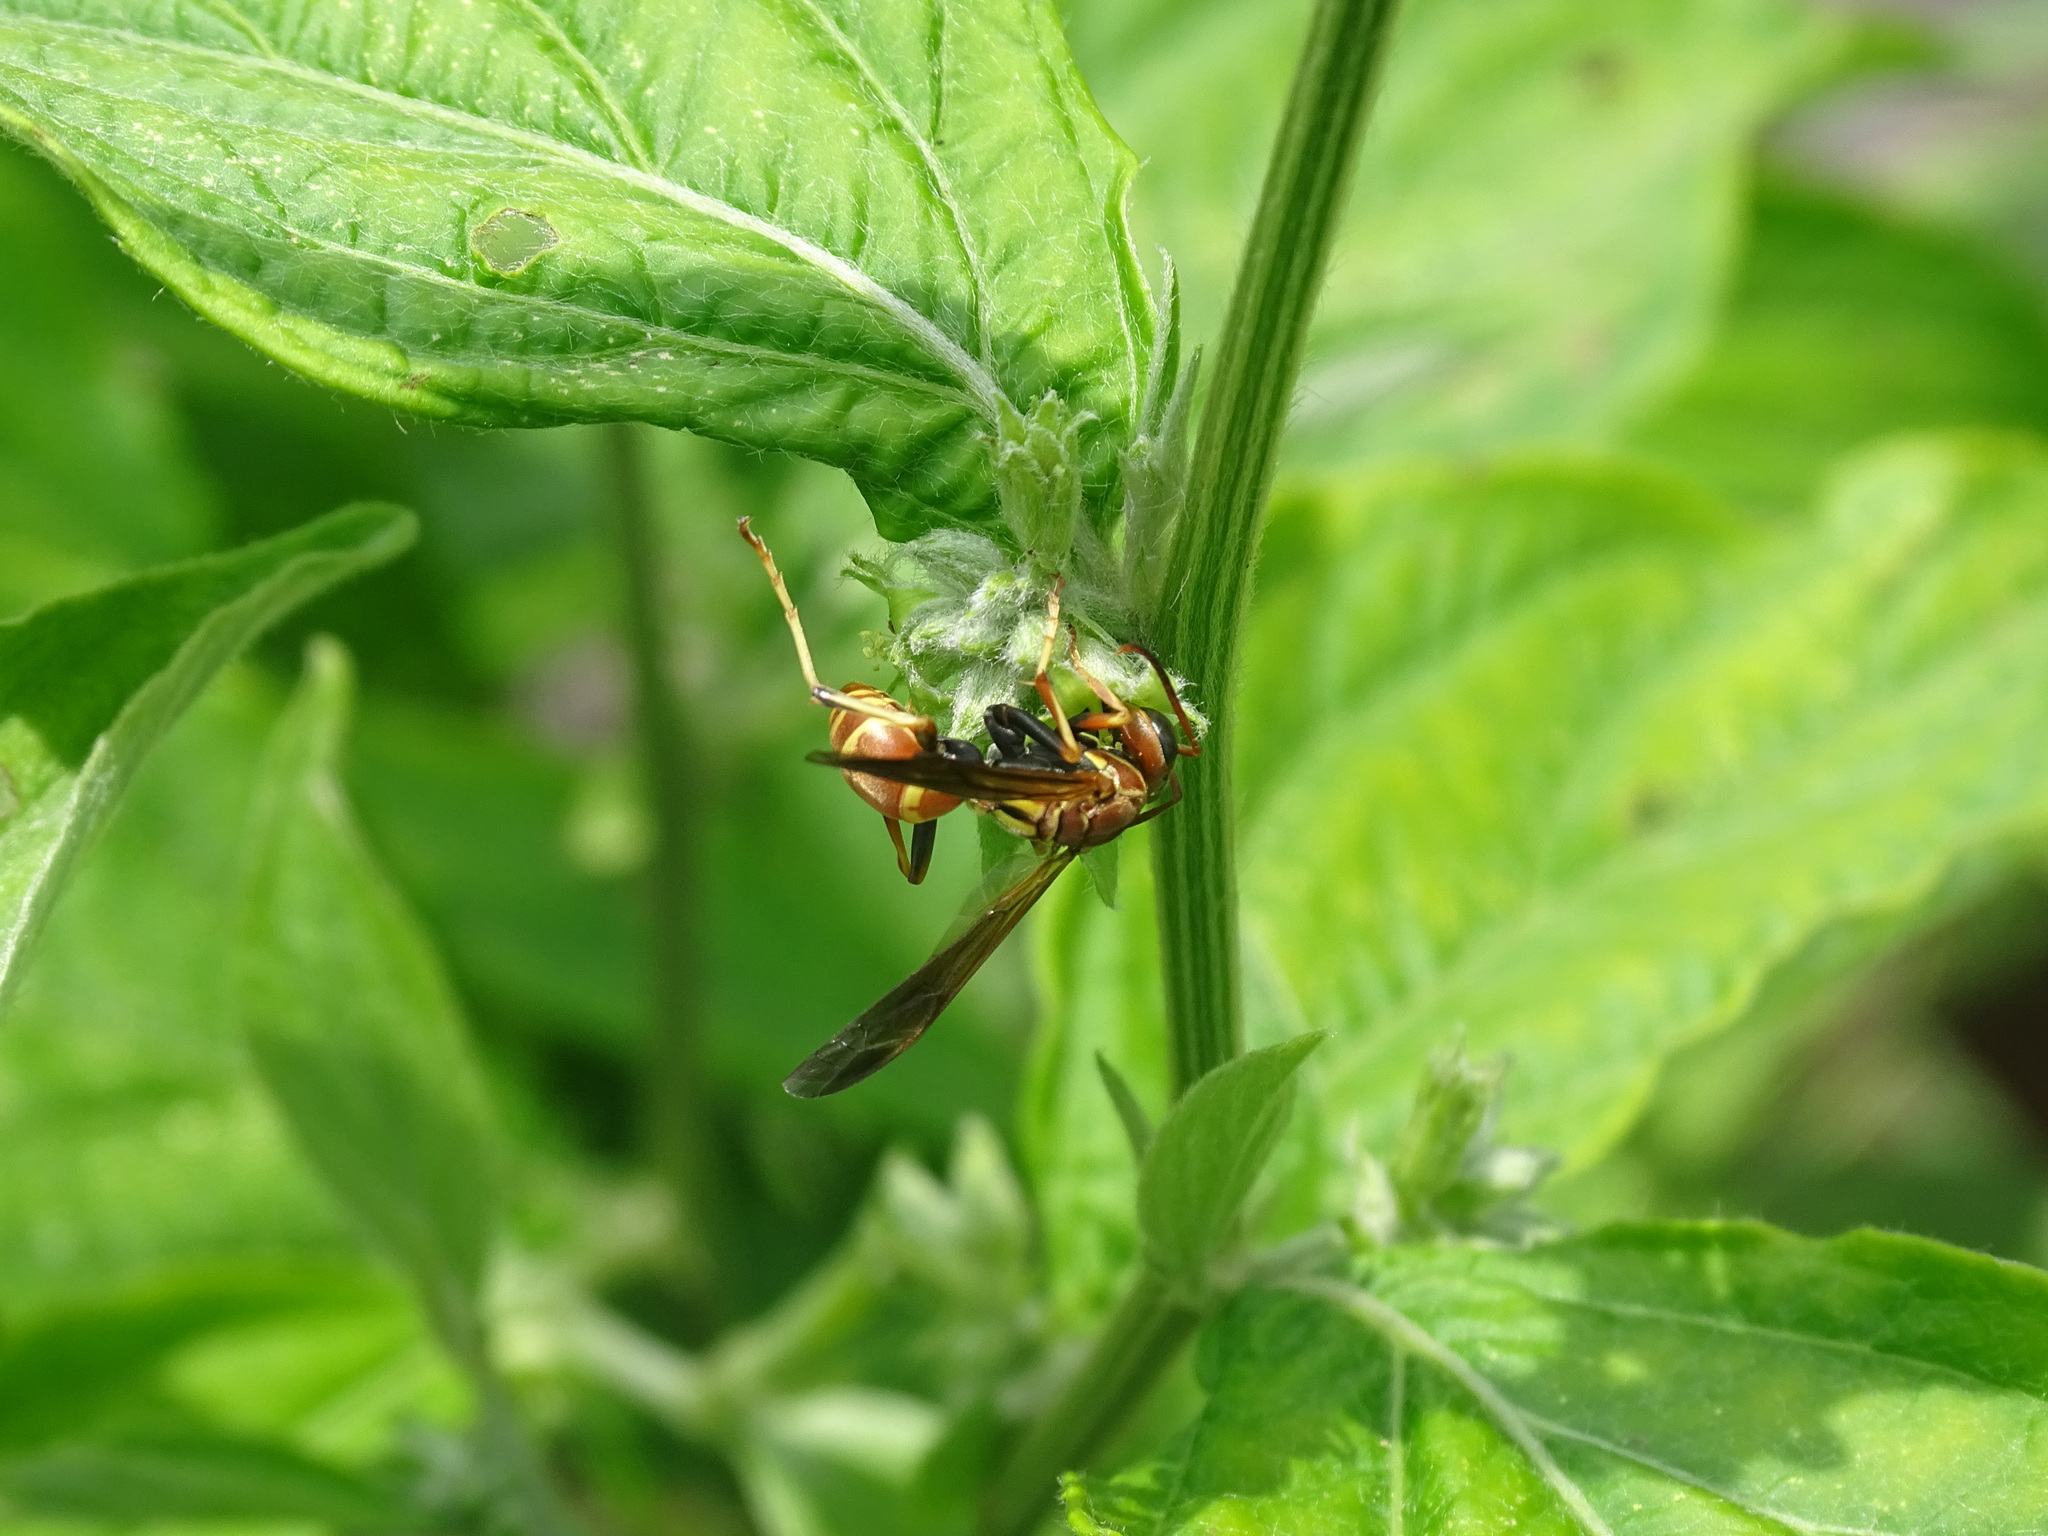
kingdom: Animalia
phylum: Arthropoda
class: Insecta
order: Hymenoptera
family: Eumenidae
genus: Polistes
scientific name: Polistes dorsalis
